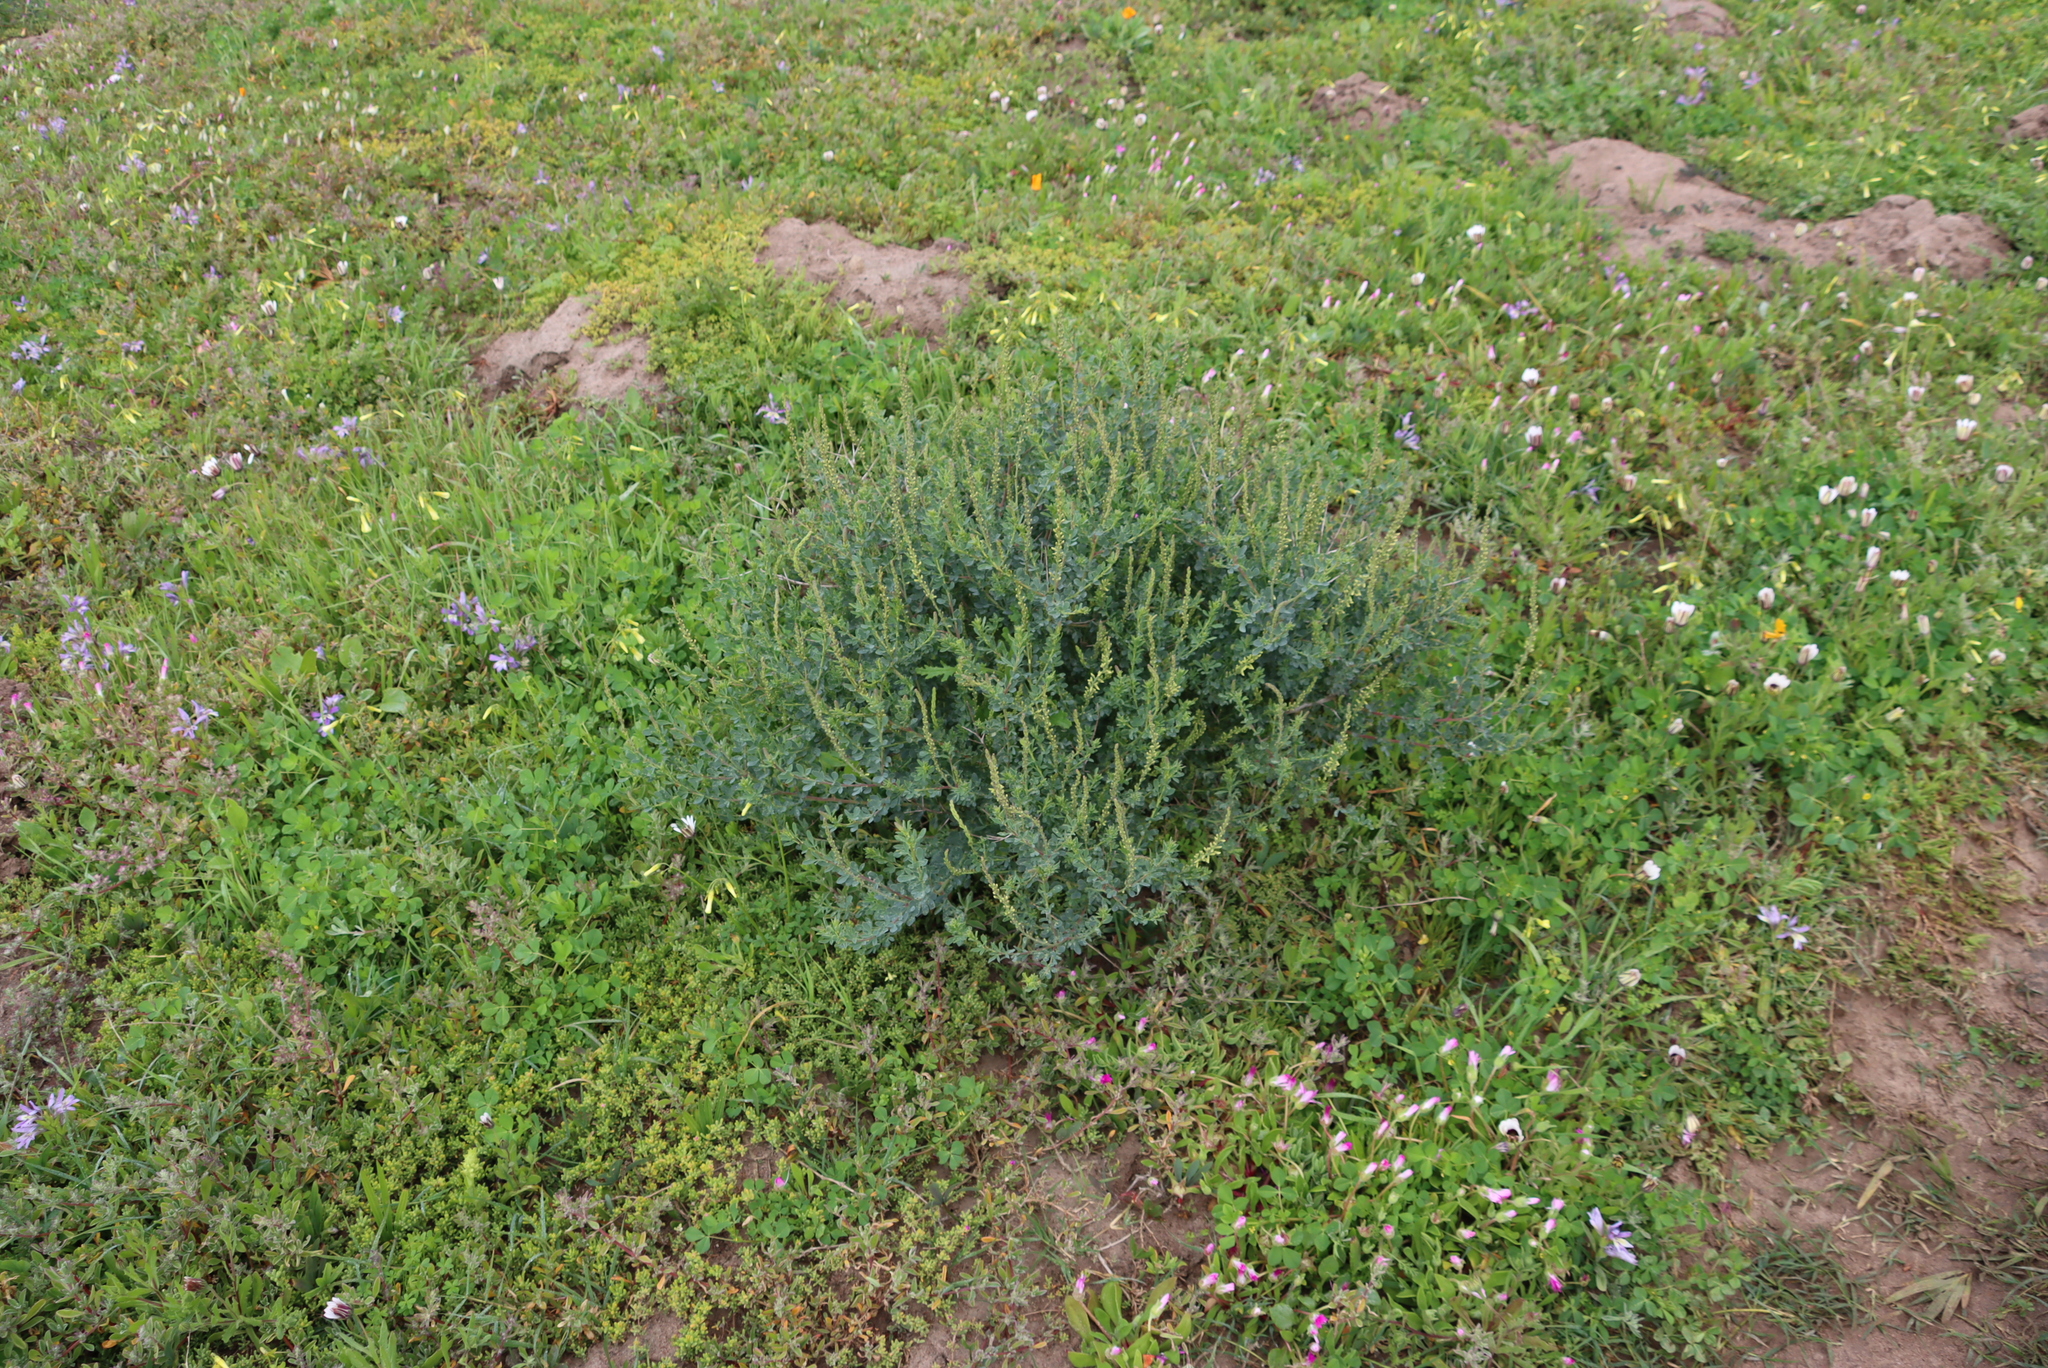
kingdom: Plantae
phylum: Tracheophyta
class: Magnoliopsida
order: Fabales
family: Fabaceae
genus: Melilotus
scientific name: Melilotus indicus
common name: Small melilot
